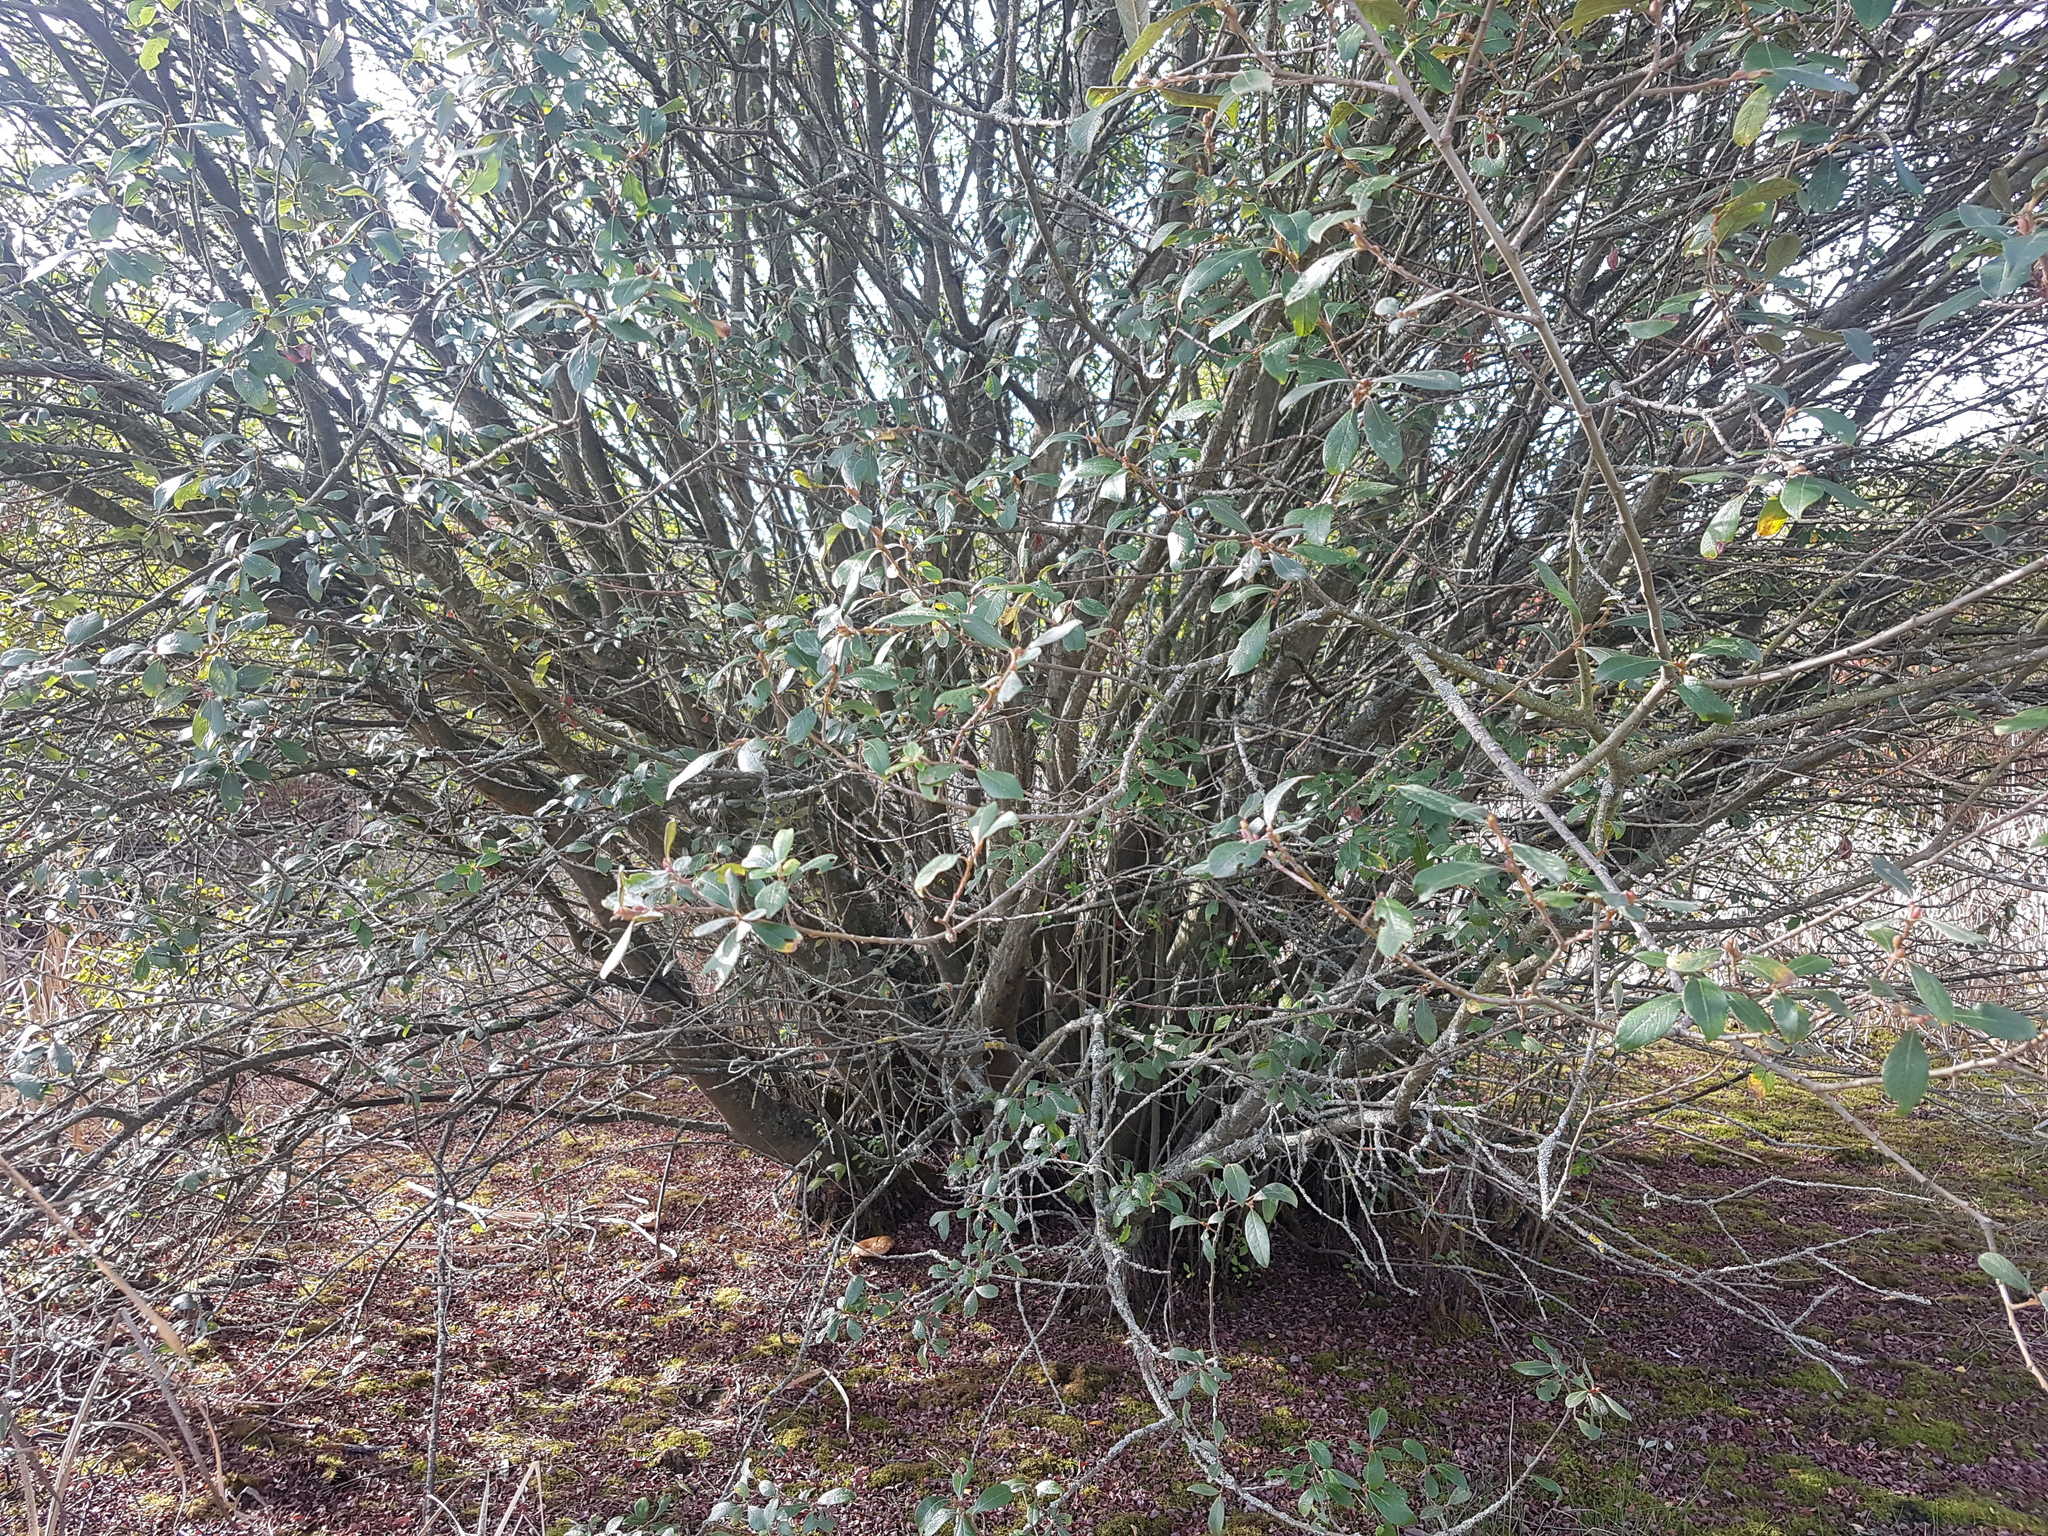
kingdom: Plantae
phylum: Tracheophyta
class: Magnoliopsida
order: Malpighiales
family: Salicaceae
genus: Salix
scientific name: Salix atrocinerea
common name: Rusty willow
